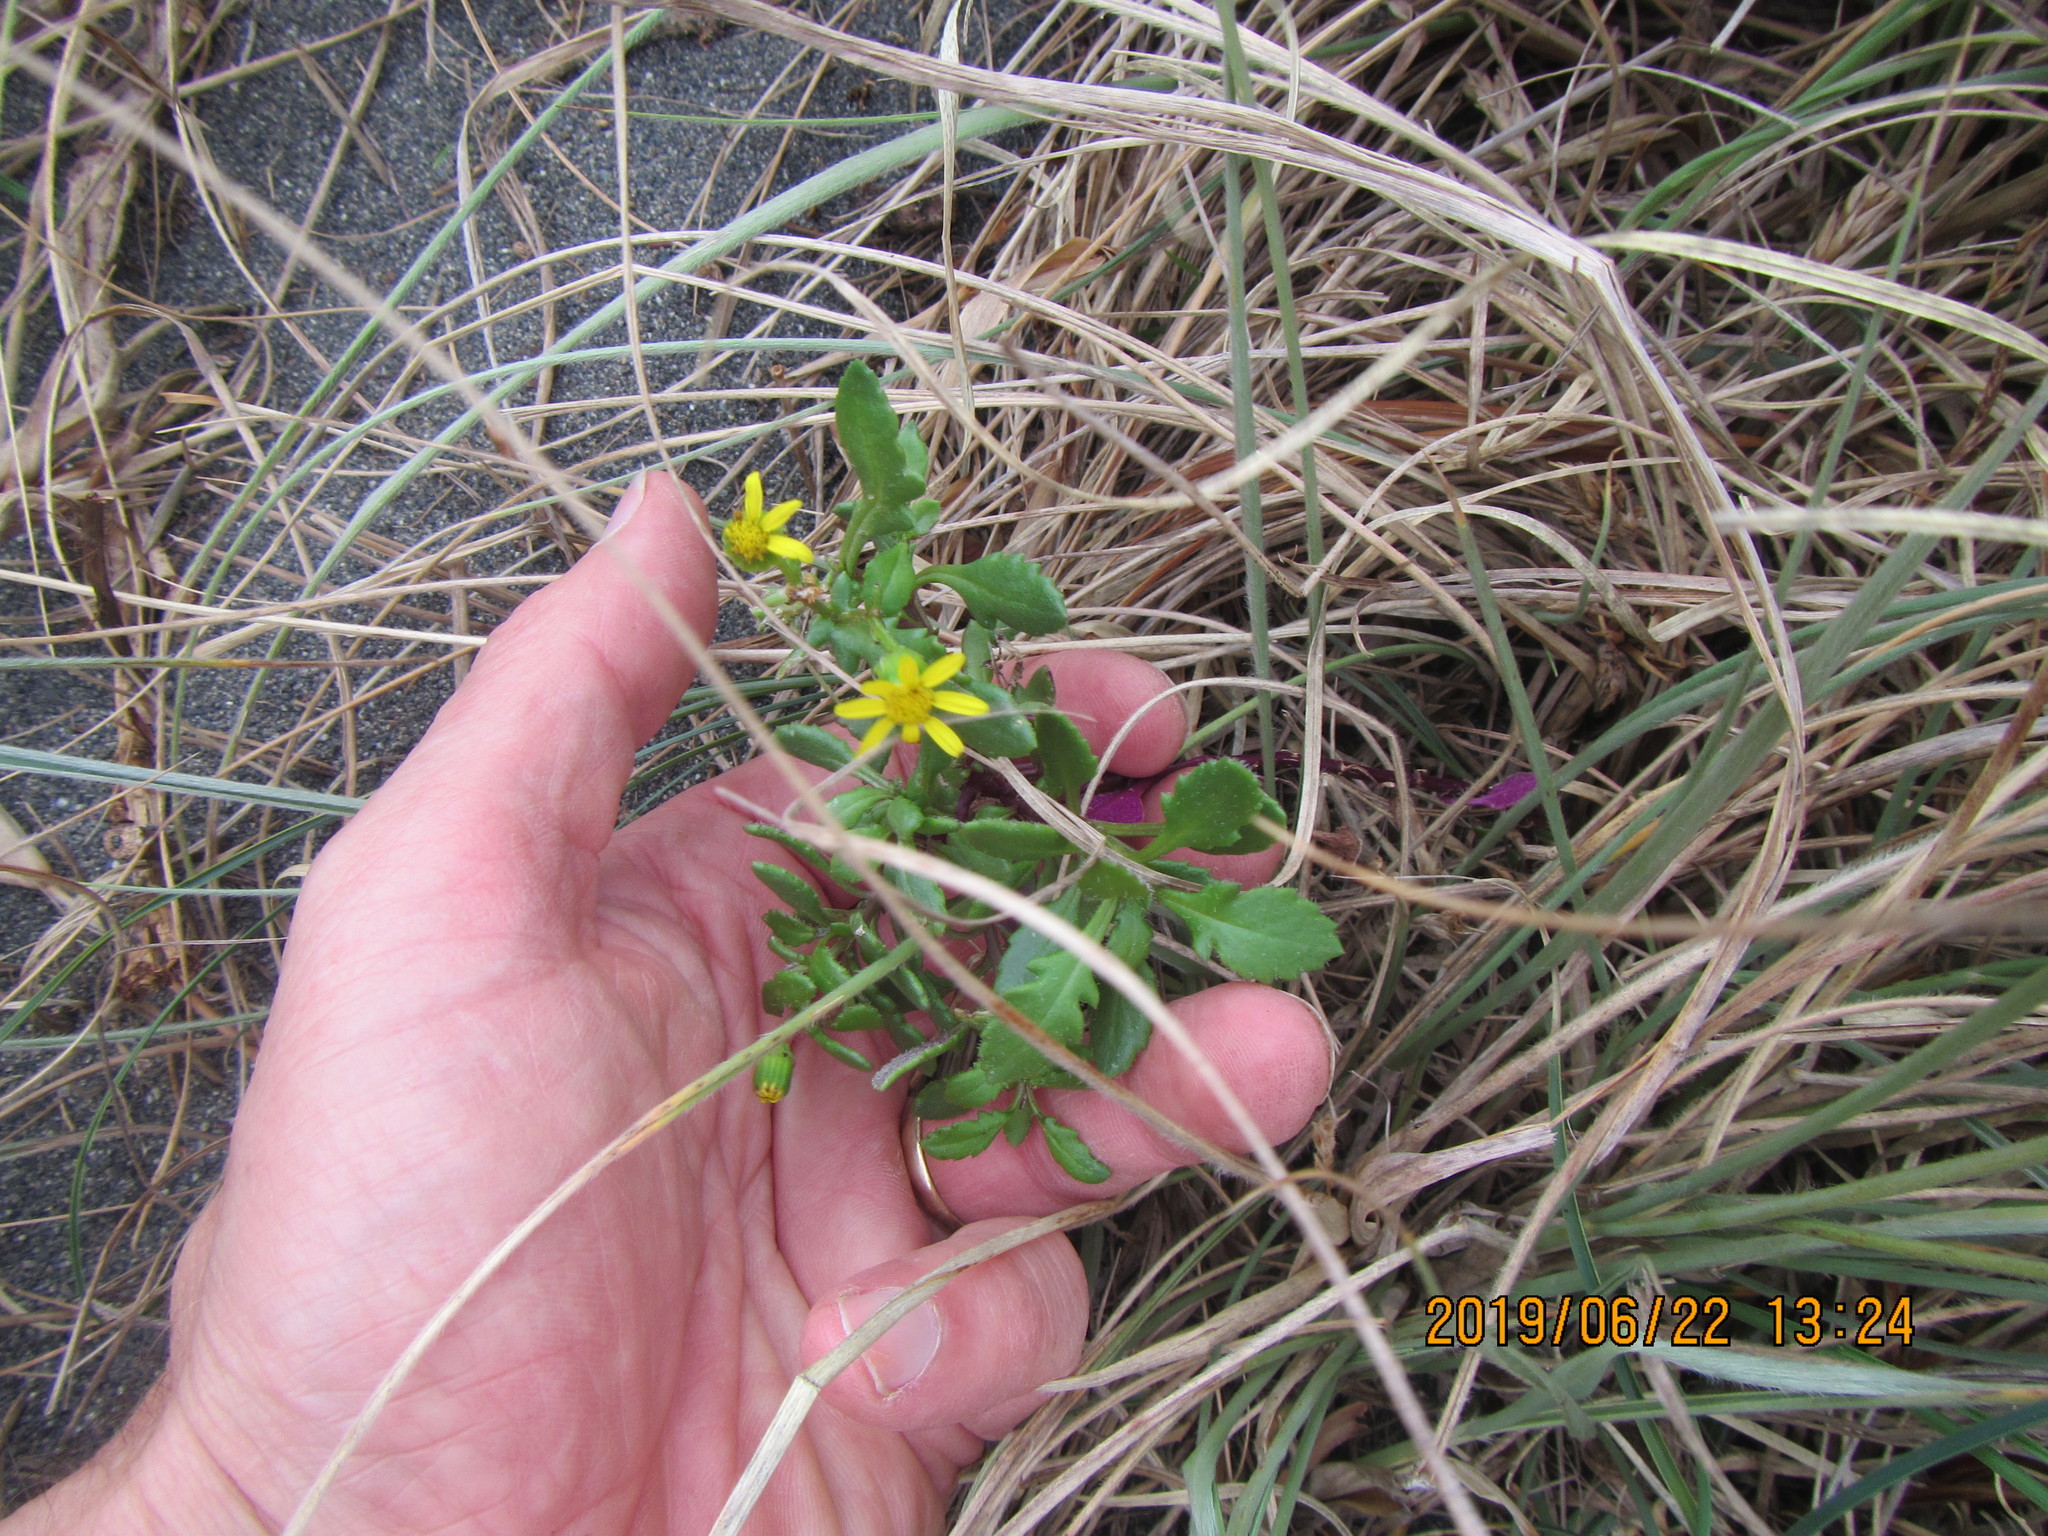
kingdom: Plantae
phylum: Tracheophyta
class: Magnoliopsida
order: Asterales
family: Asteraceae
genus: Senecio
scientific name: Senecio lautus
